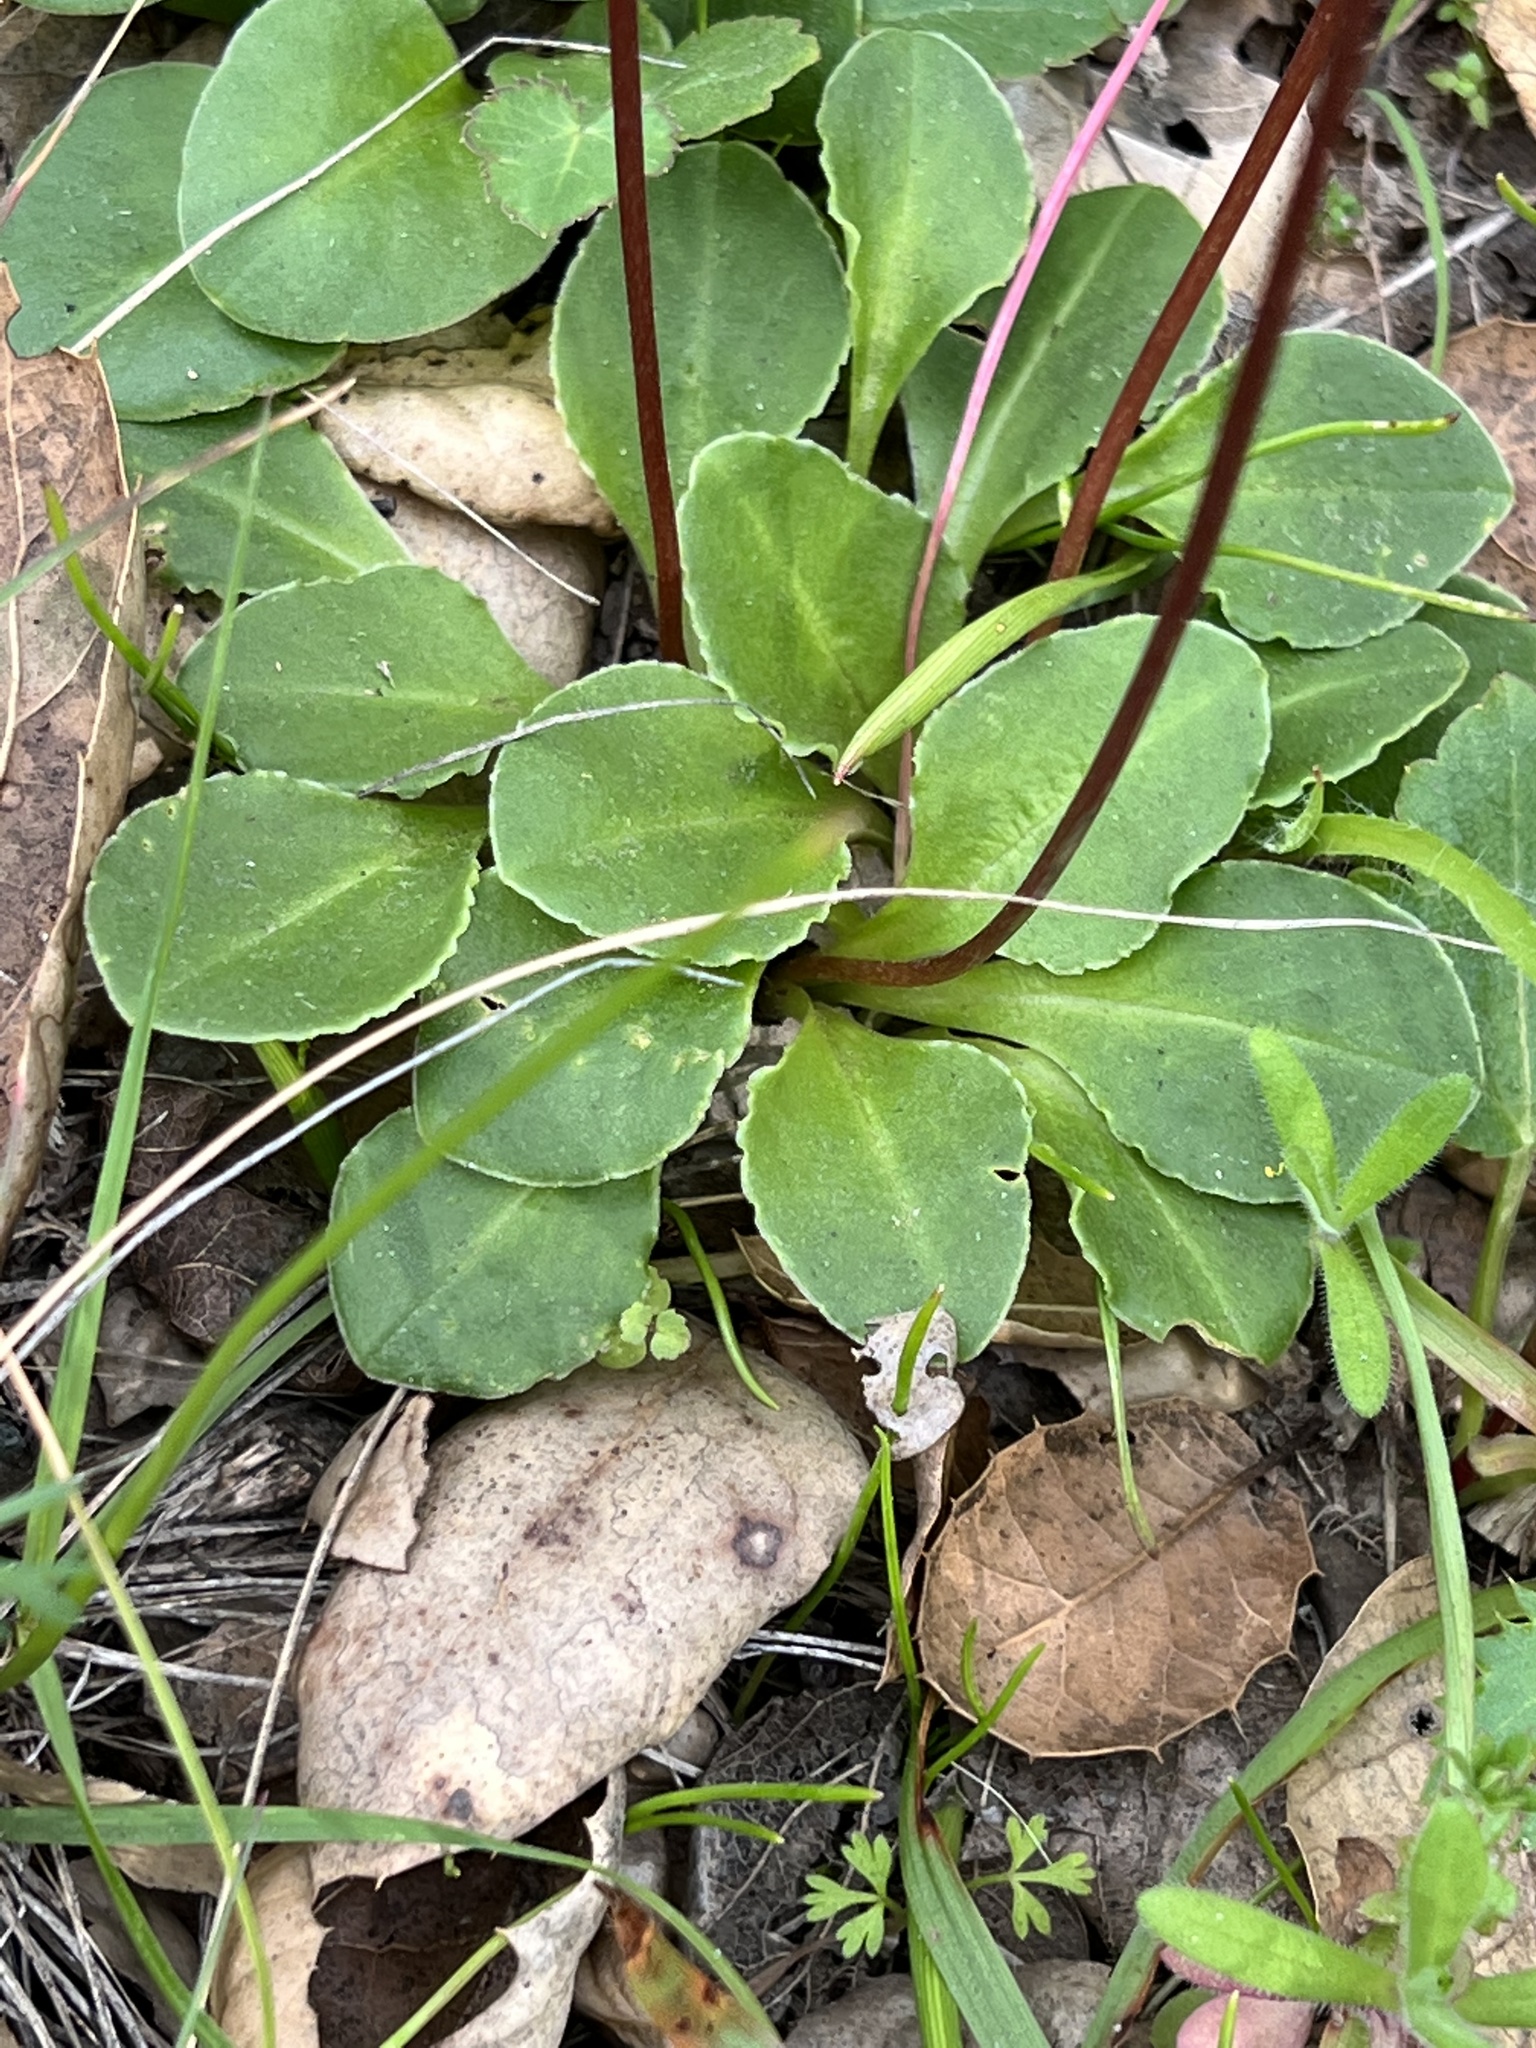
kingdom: Plantae
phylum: Tracheophyta
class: Magnoliopsida
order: Ericales
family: Primulaceae
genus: Dodecatheon
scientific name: Dodecatheon hendersonii
